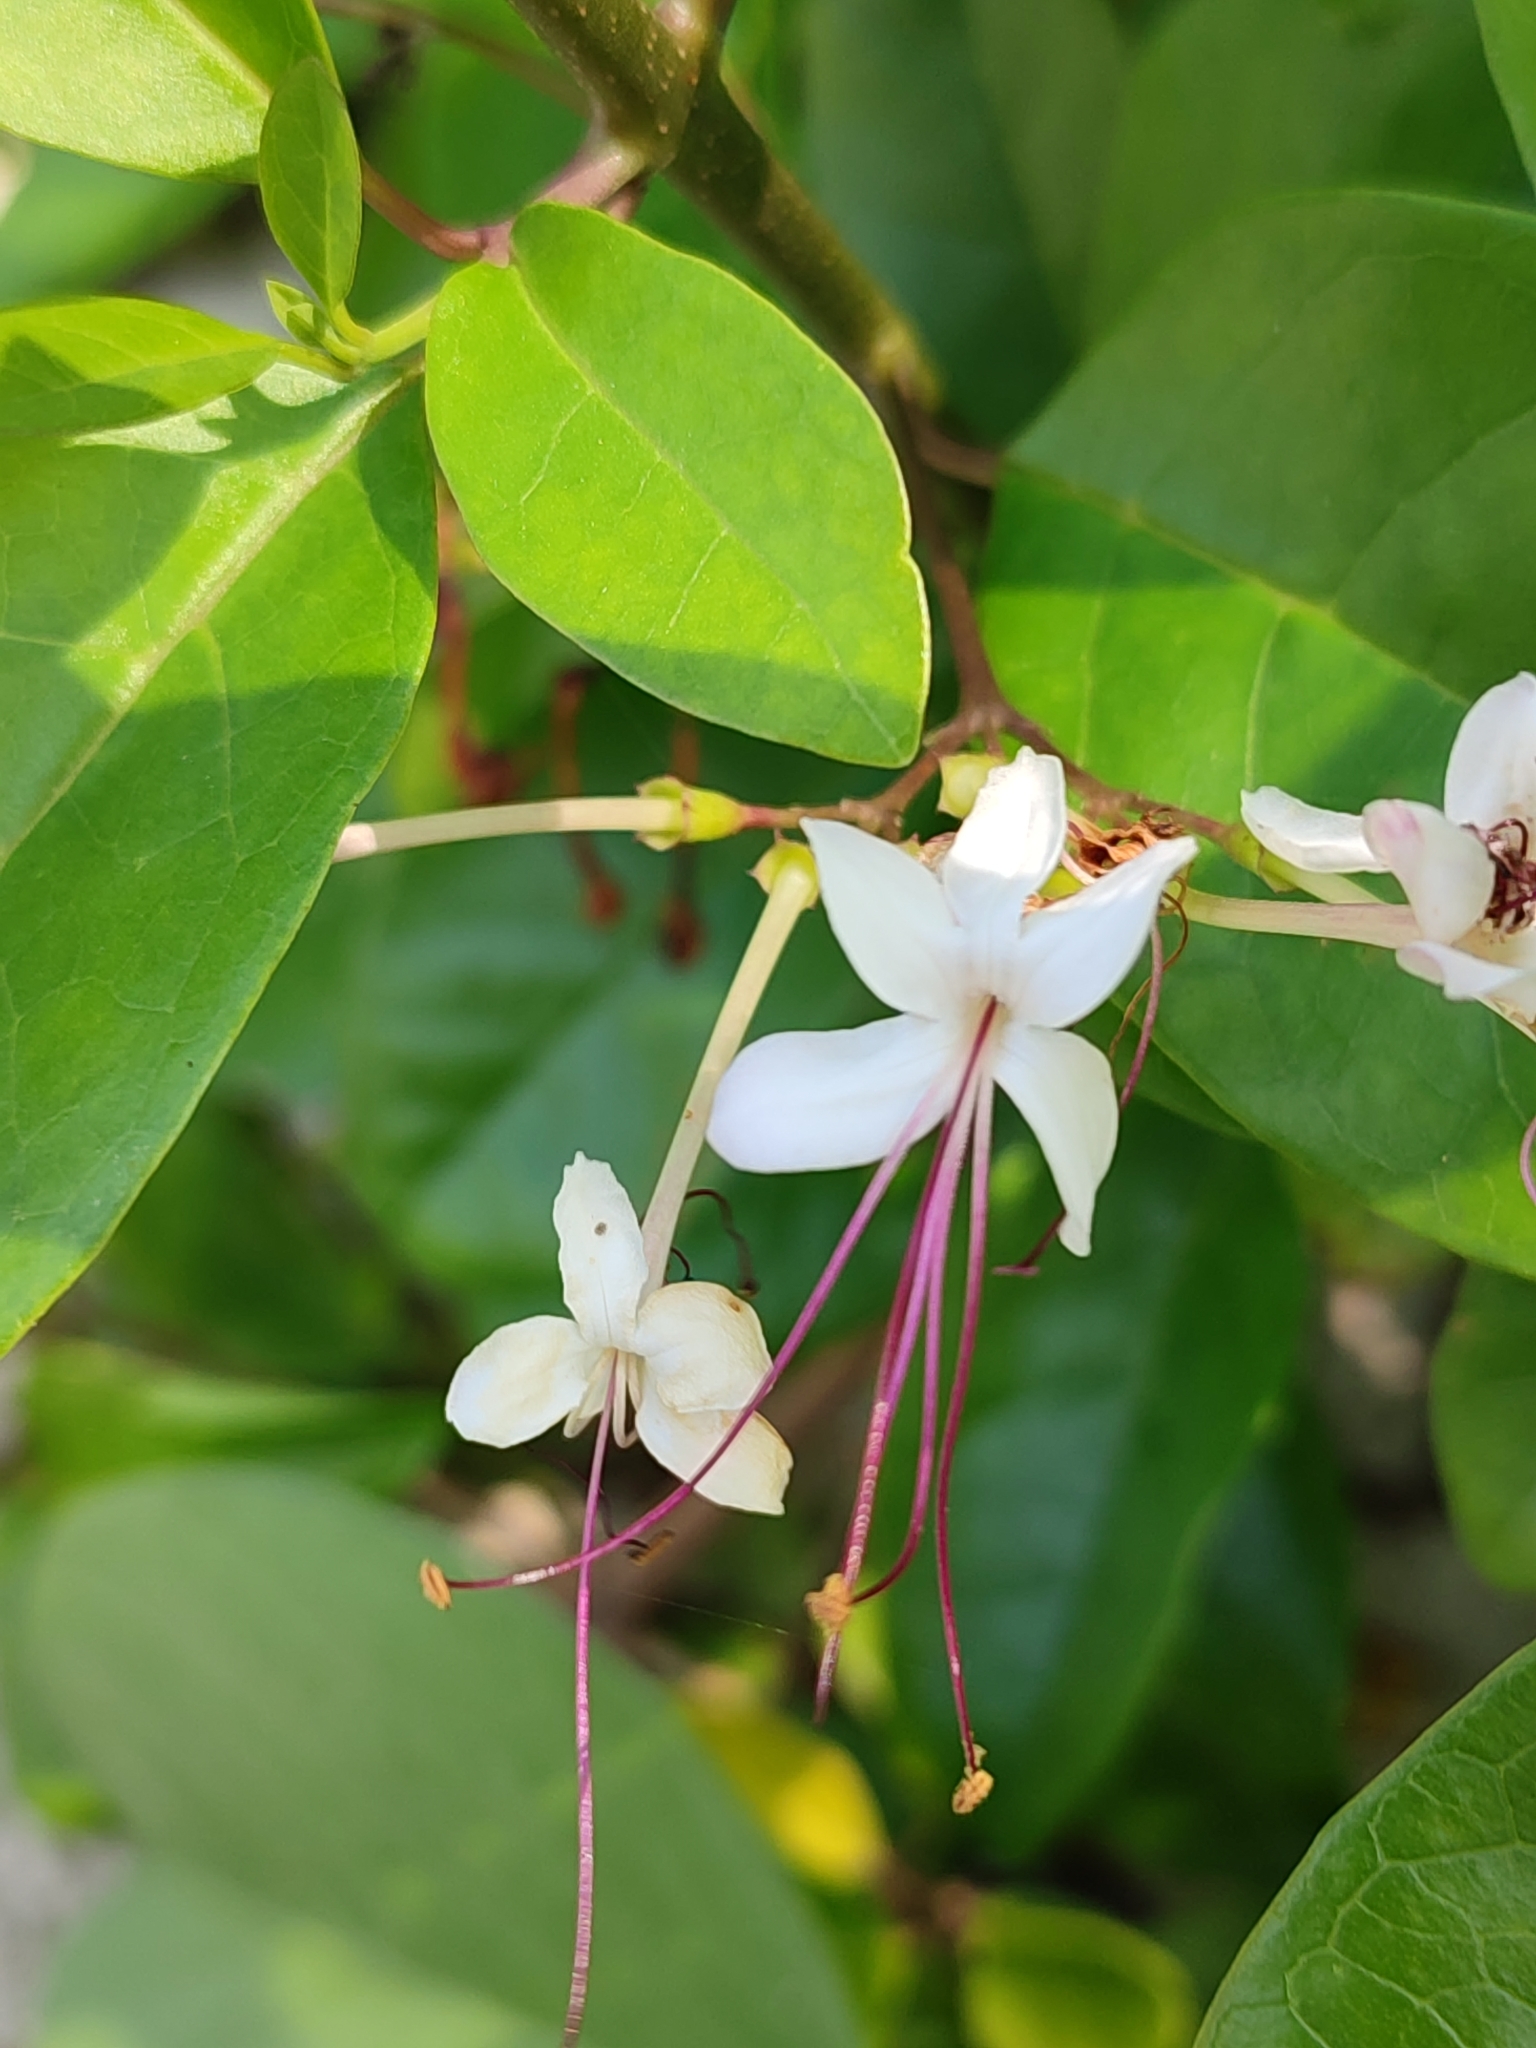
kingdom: Plantae
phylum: Tracheophyta
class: Magnoliopsida
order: Lamiales
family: Lamiaceae
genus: Volkameria
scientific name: Volkameria inermis
